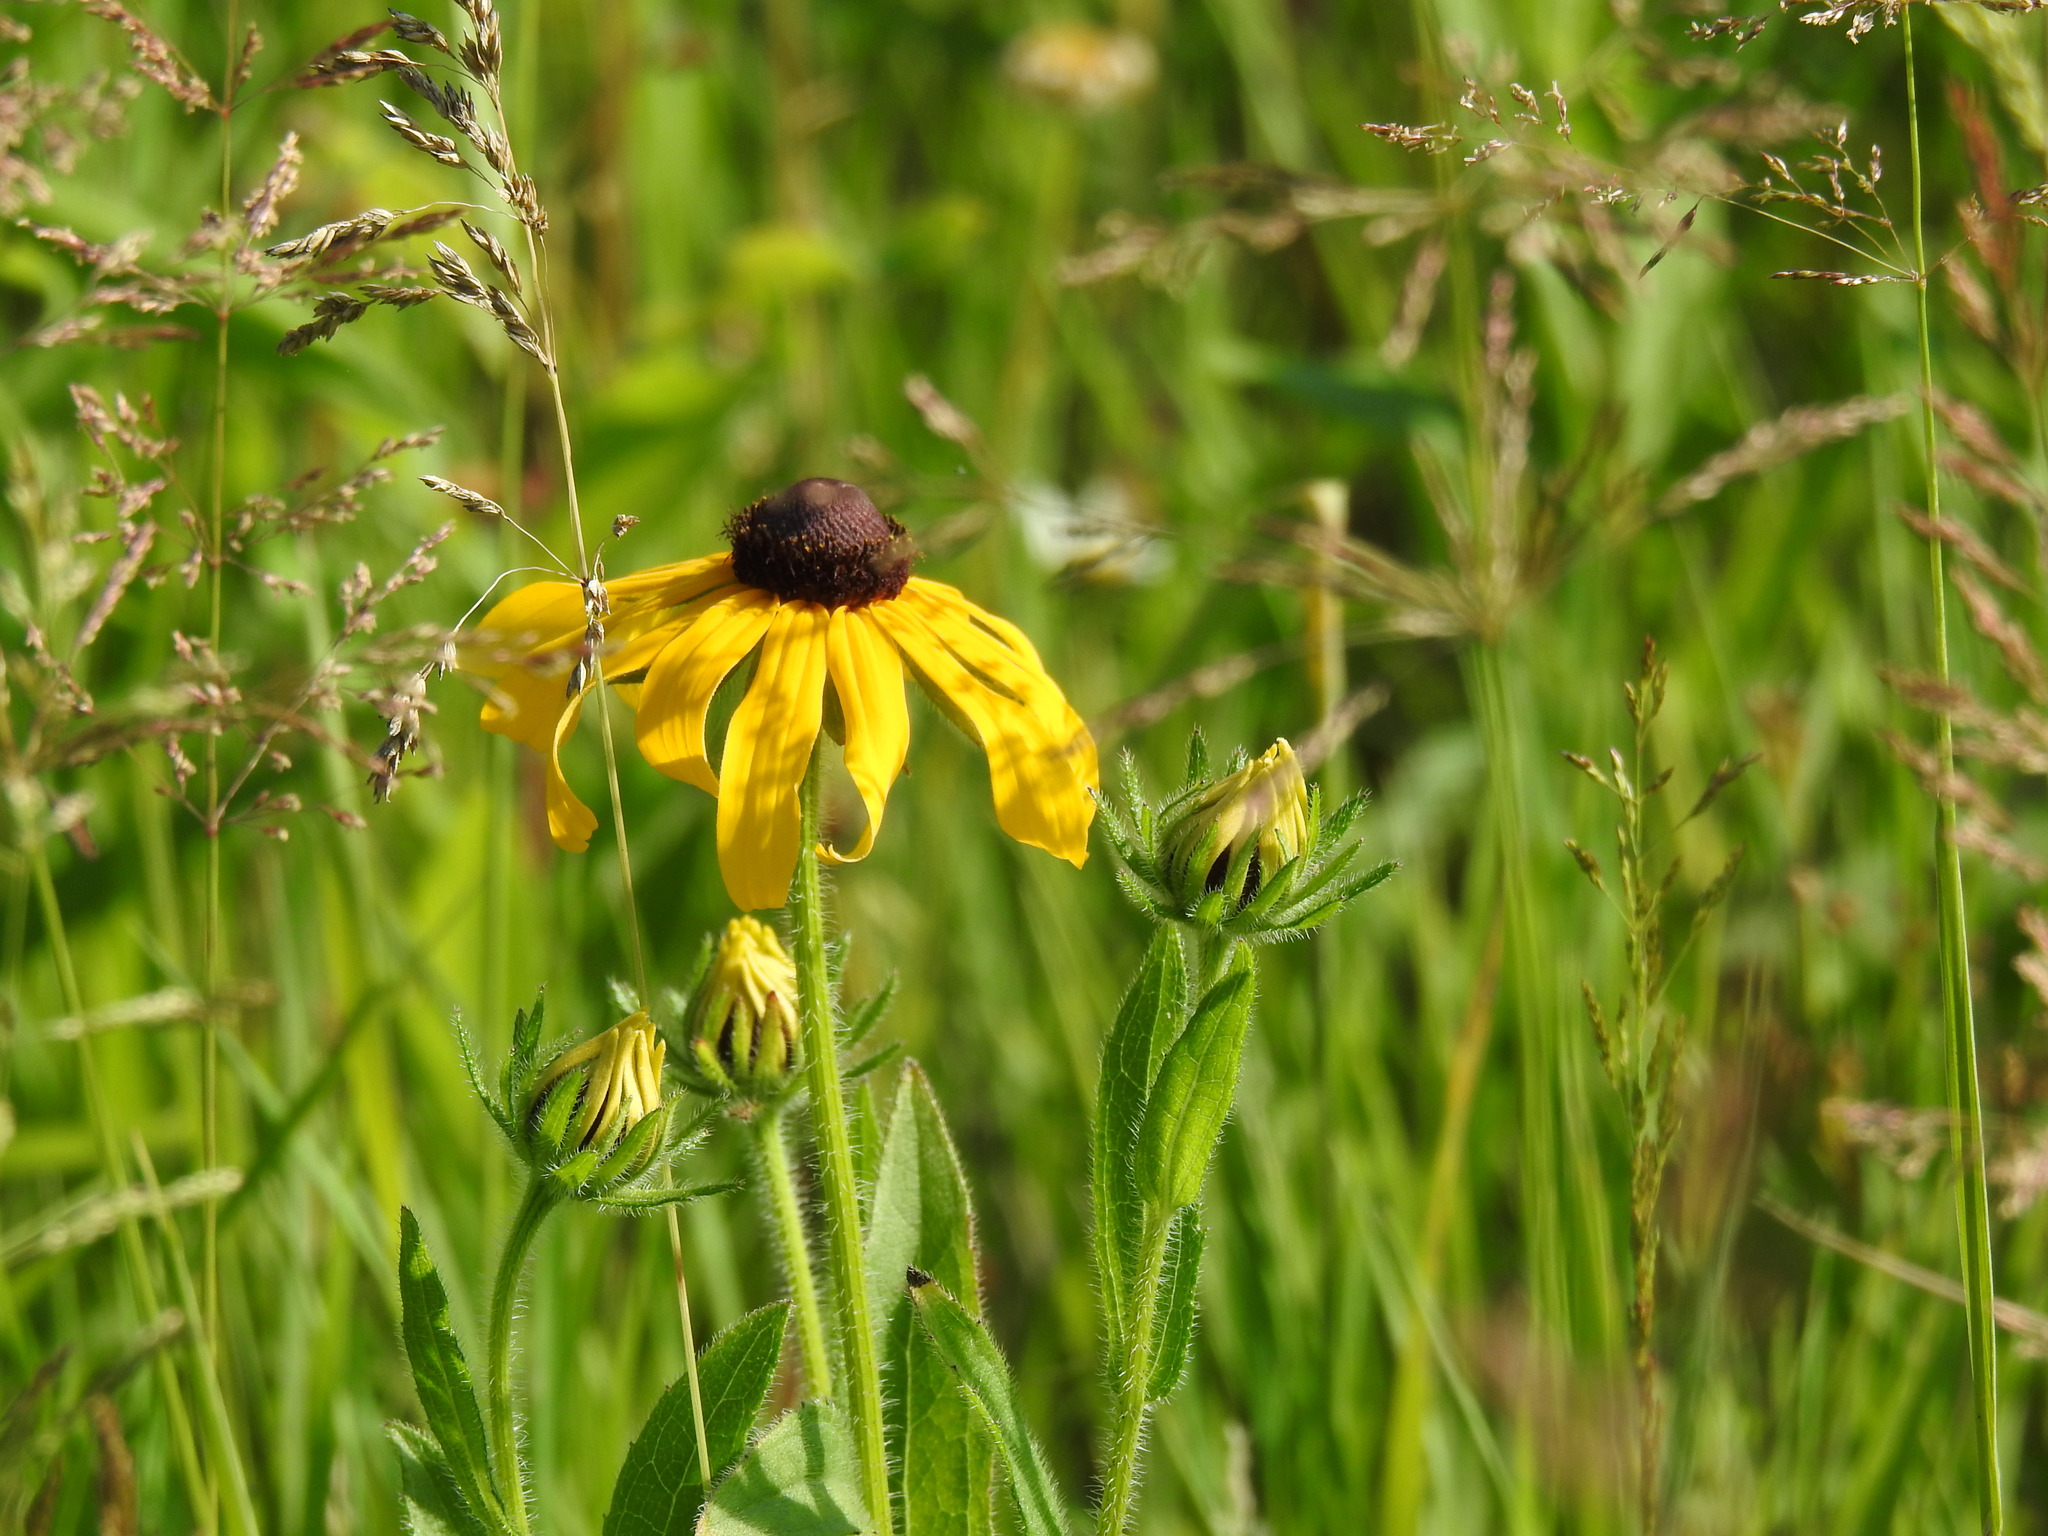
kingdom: Plantae
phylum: Tracheophyta
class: Magnoliopsida
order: Asterales
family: Asteraceae
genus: Rudbeckia
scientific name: Rudbeckia hirta
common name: Black-eyed-susan
